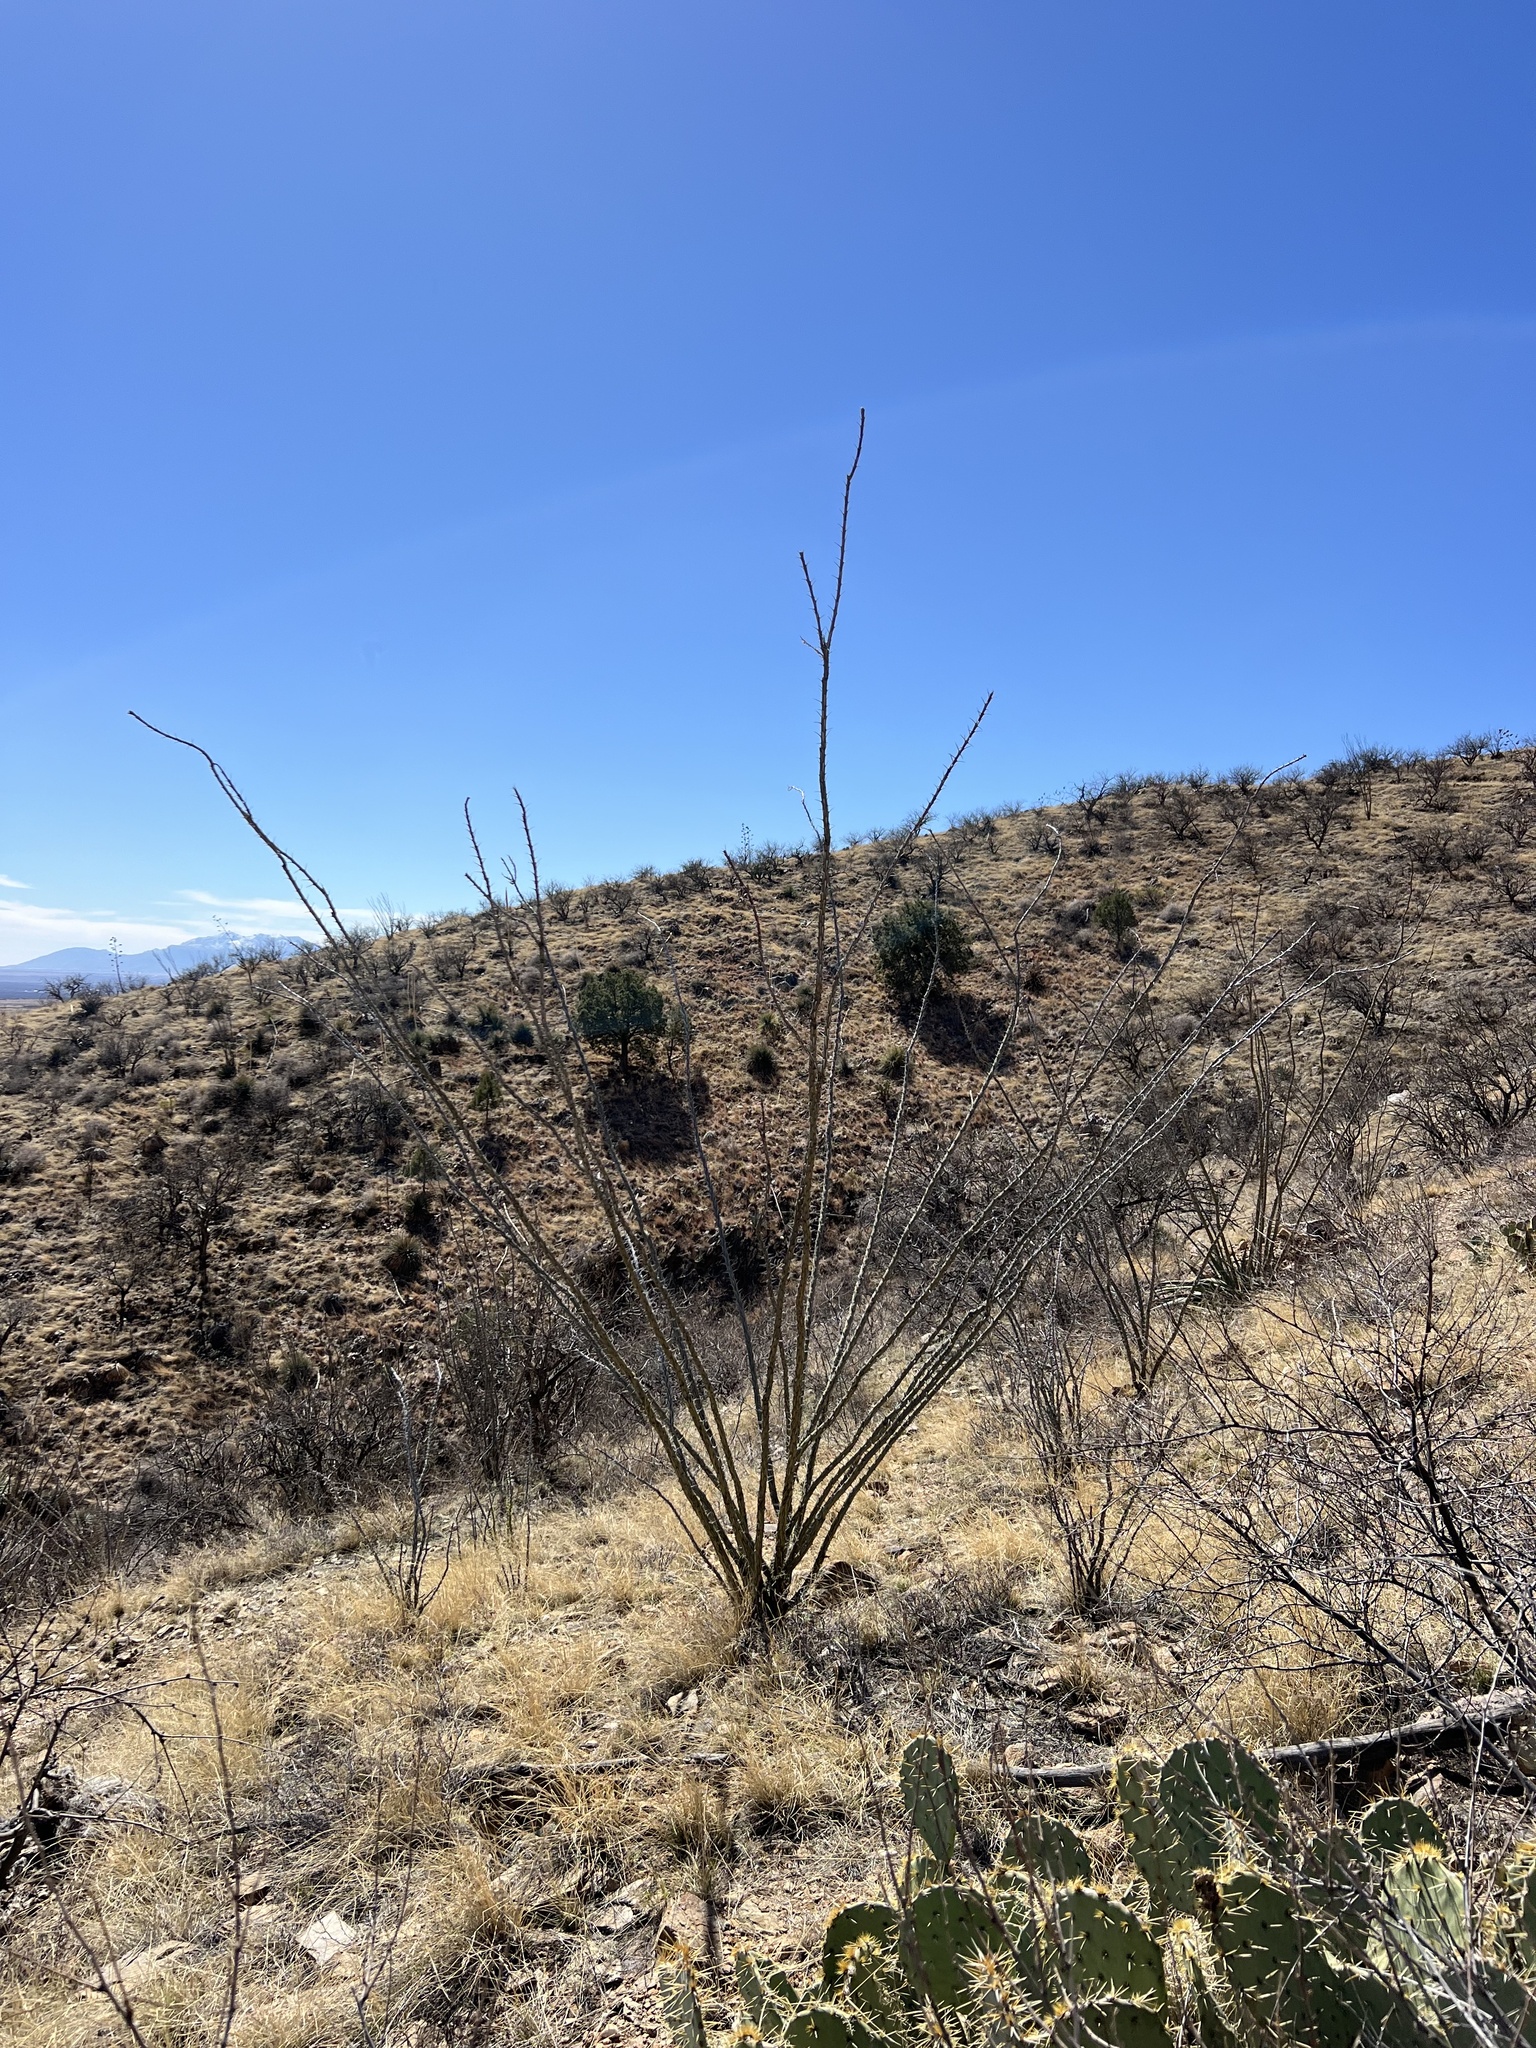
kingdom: Plantae
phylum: Tracheophyta
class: Magnoliopsida
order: Ericales
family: Fouquieriaceae
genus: Fouquieria
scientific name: Fouquieria splendens
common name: Vine-cactus
